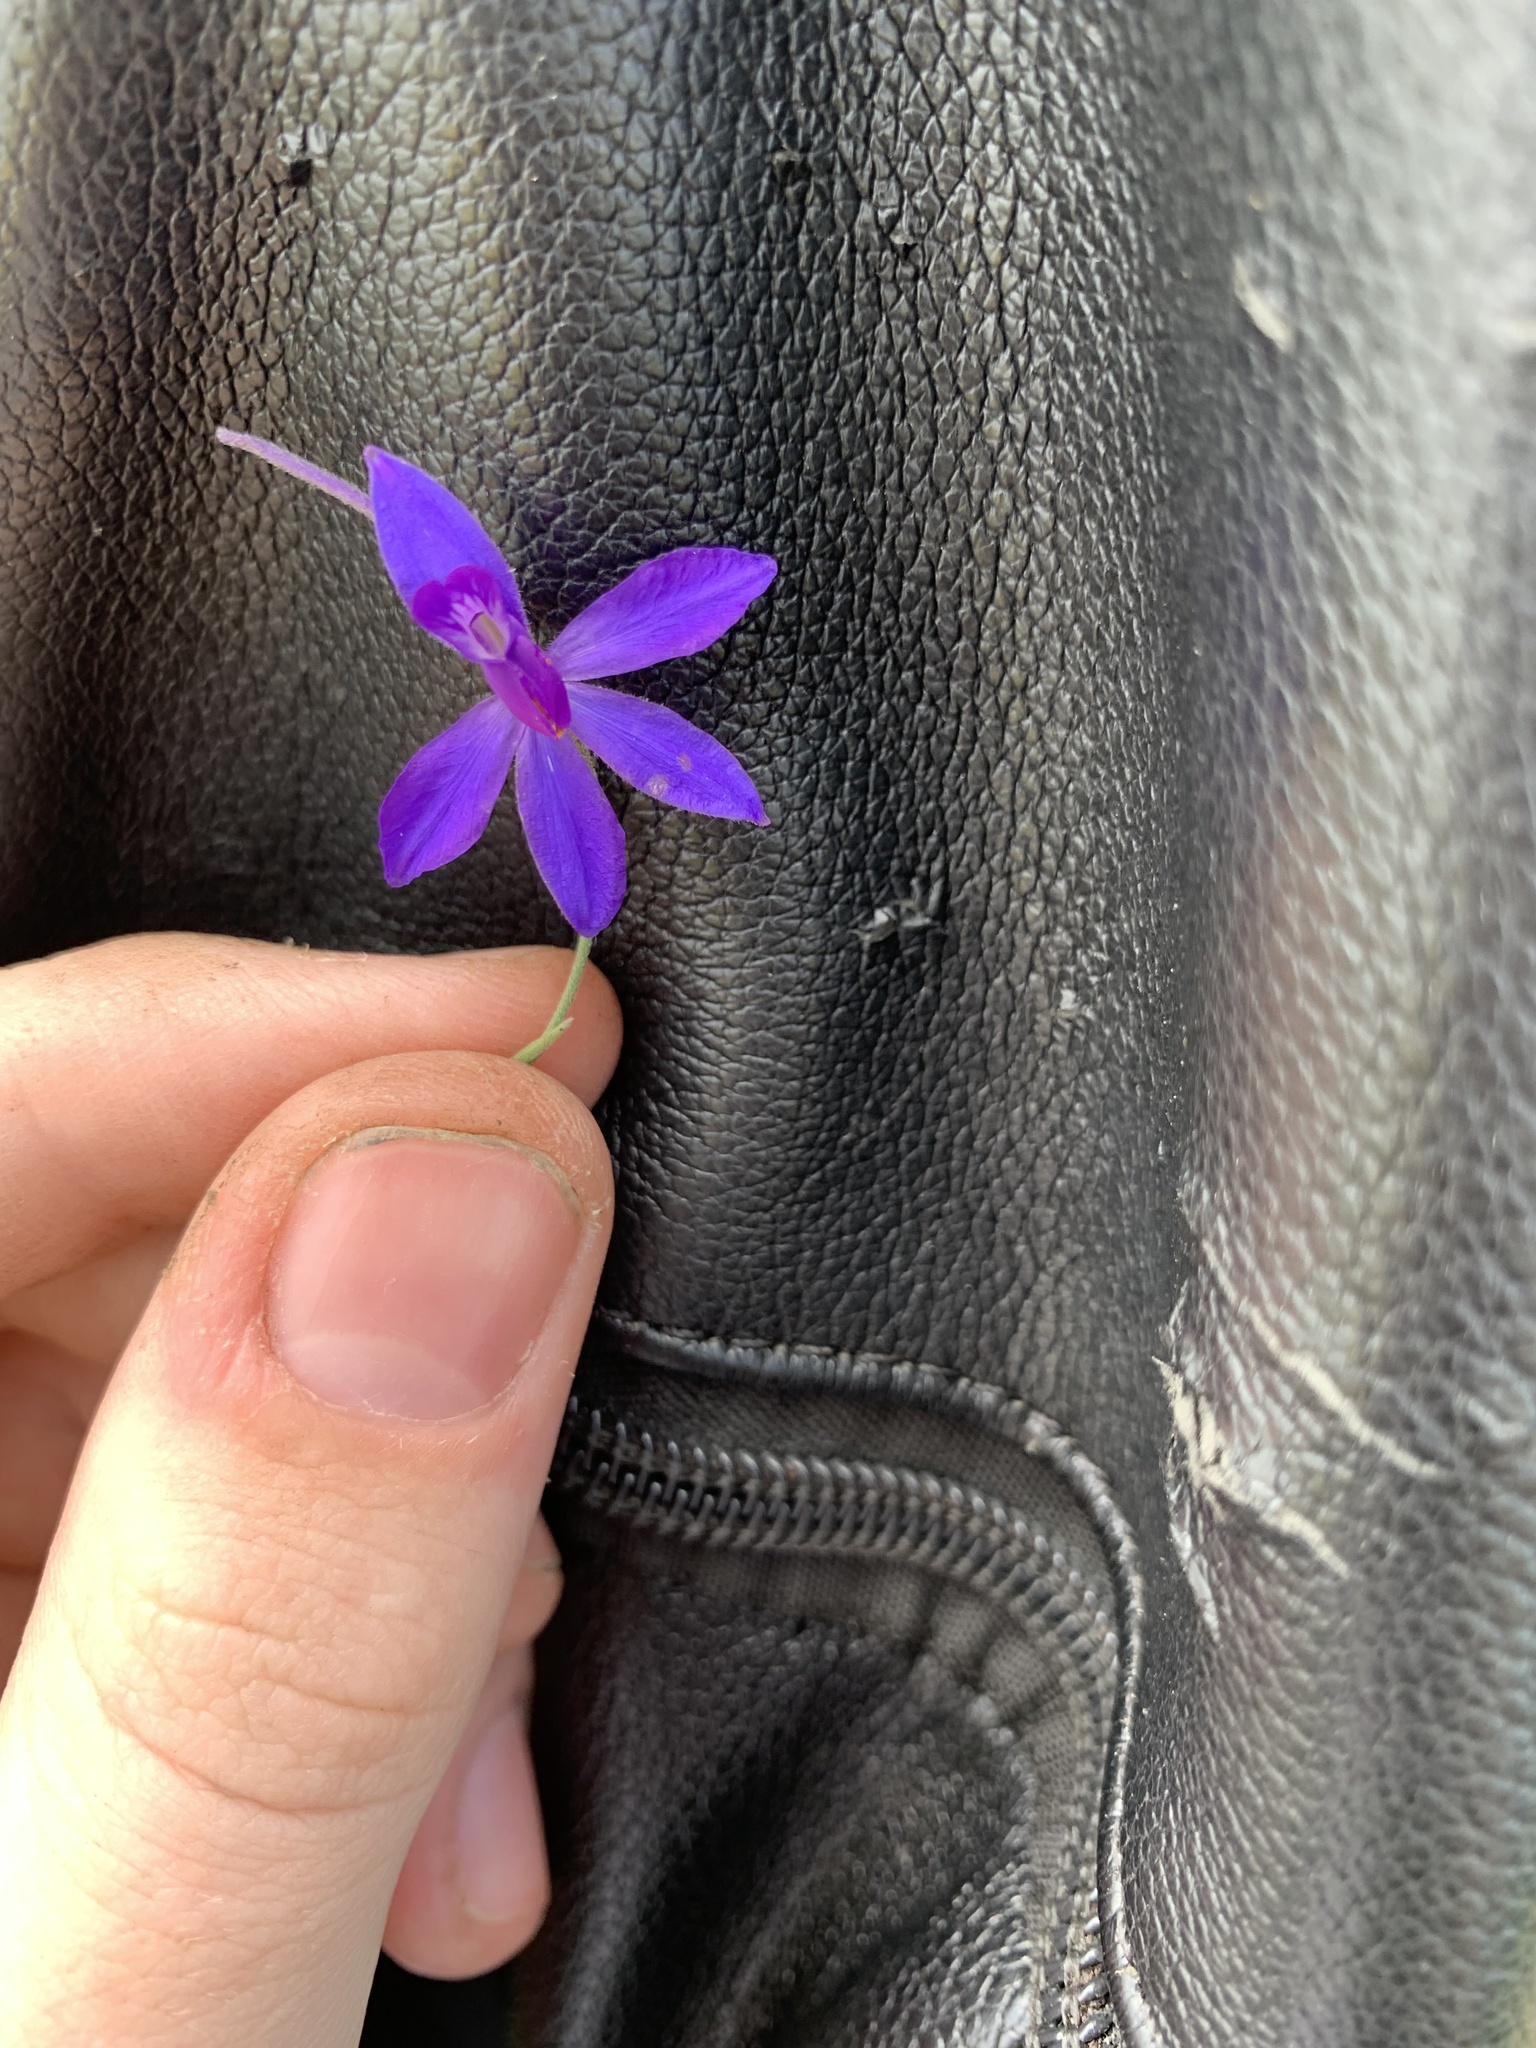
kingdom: Plantae
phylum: Tracheophyta
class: Magnoliopsida
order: Ranunculales
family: Ranunculaceae
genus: Delphinium
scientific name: Delphinium consolida
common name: Branching larkspur
